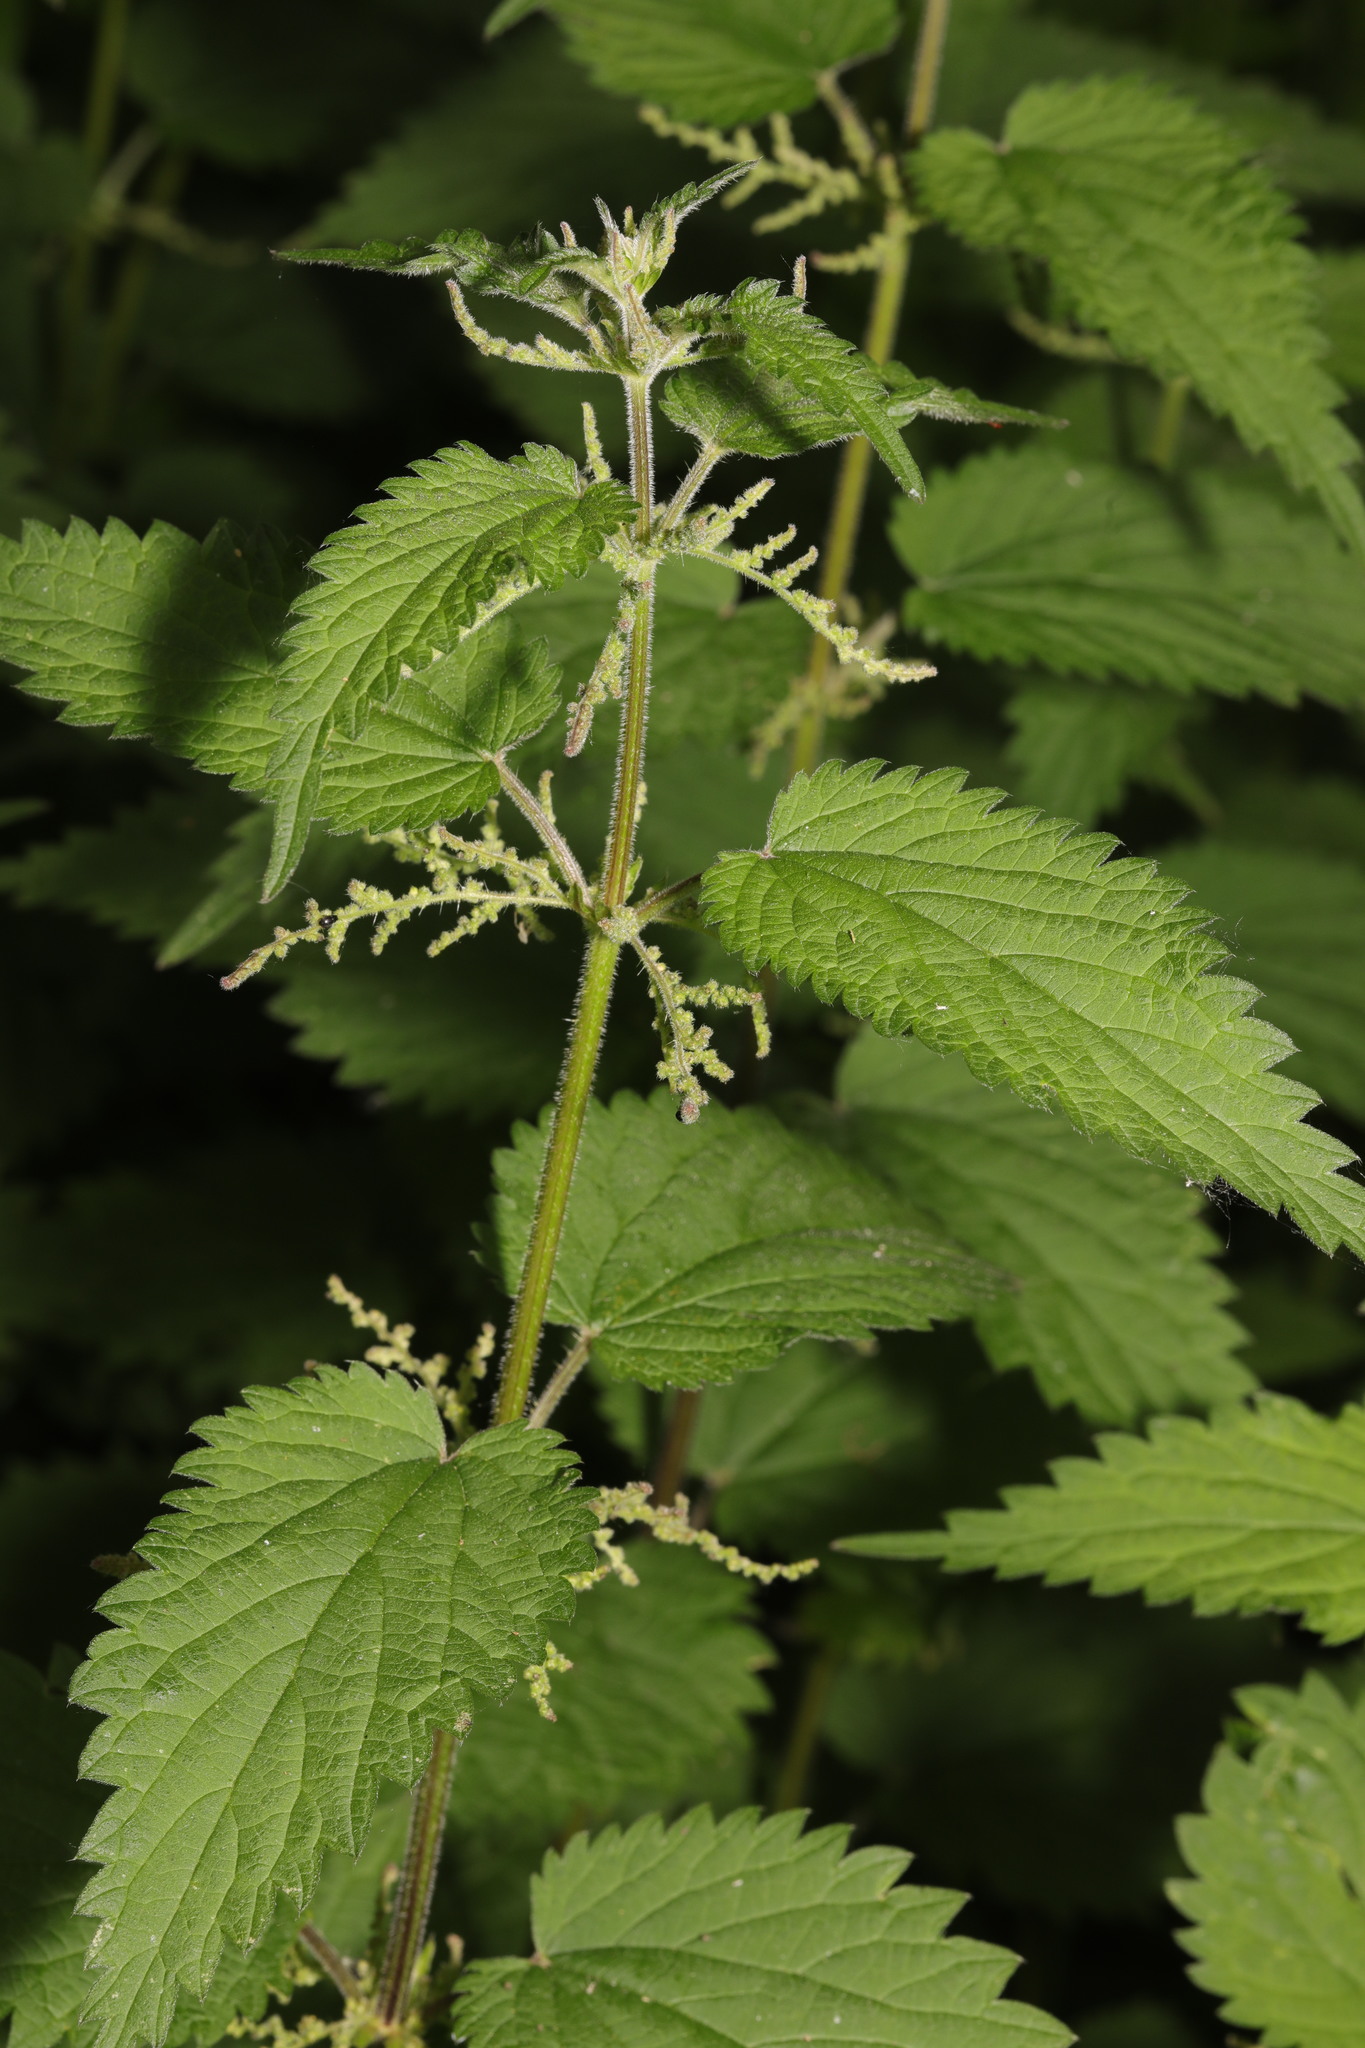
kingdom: Plantae
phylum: Tracheophyta
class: Magnoliopsida
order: Rosales
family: Urticaceae
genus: Urtica
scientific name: Urtica dioica
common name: Common nettle
